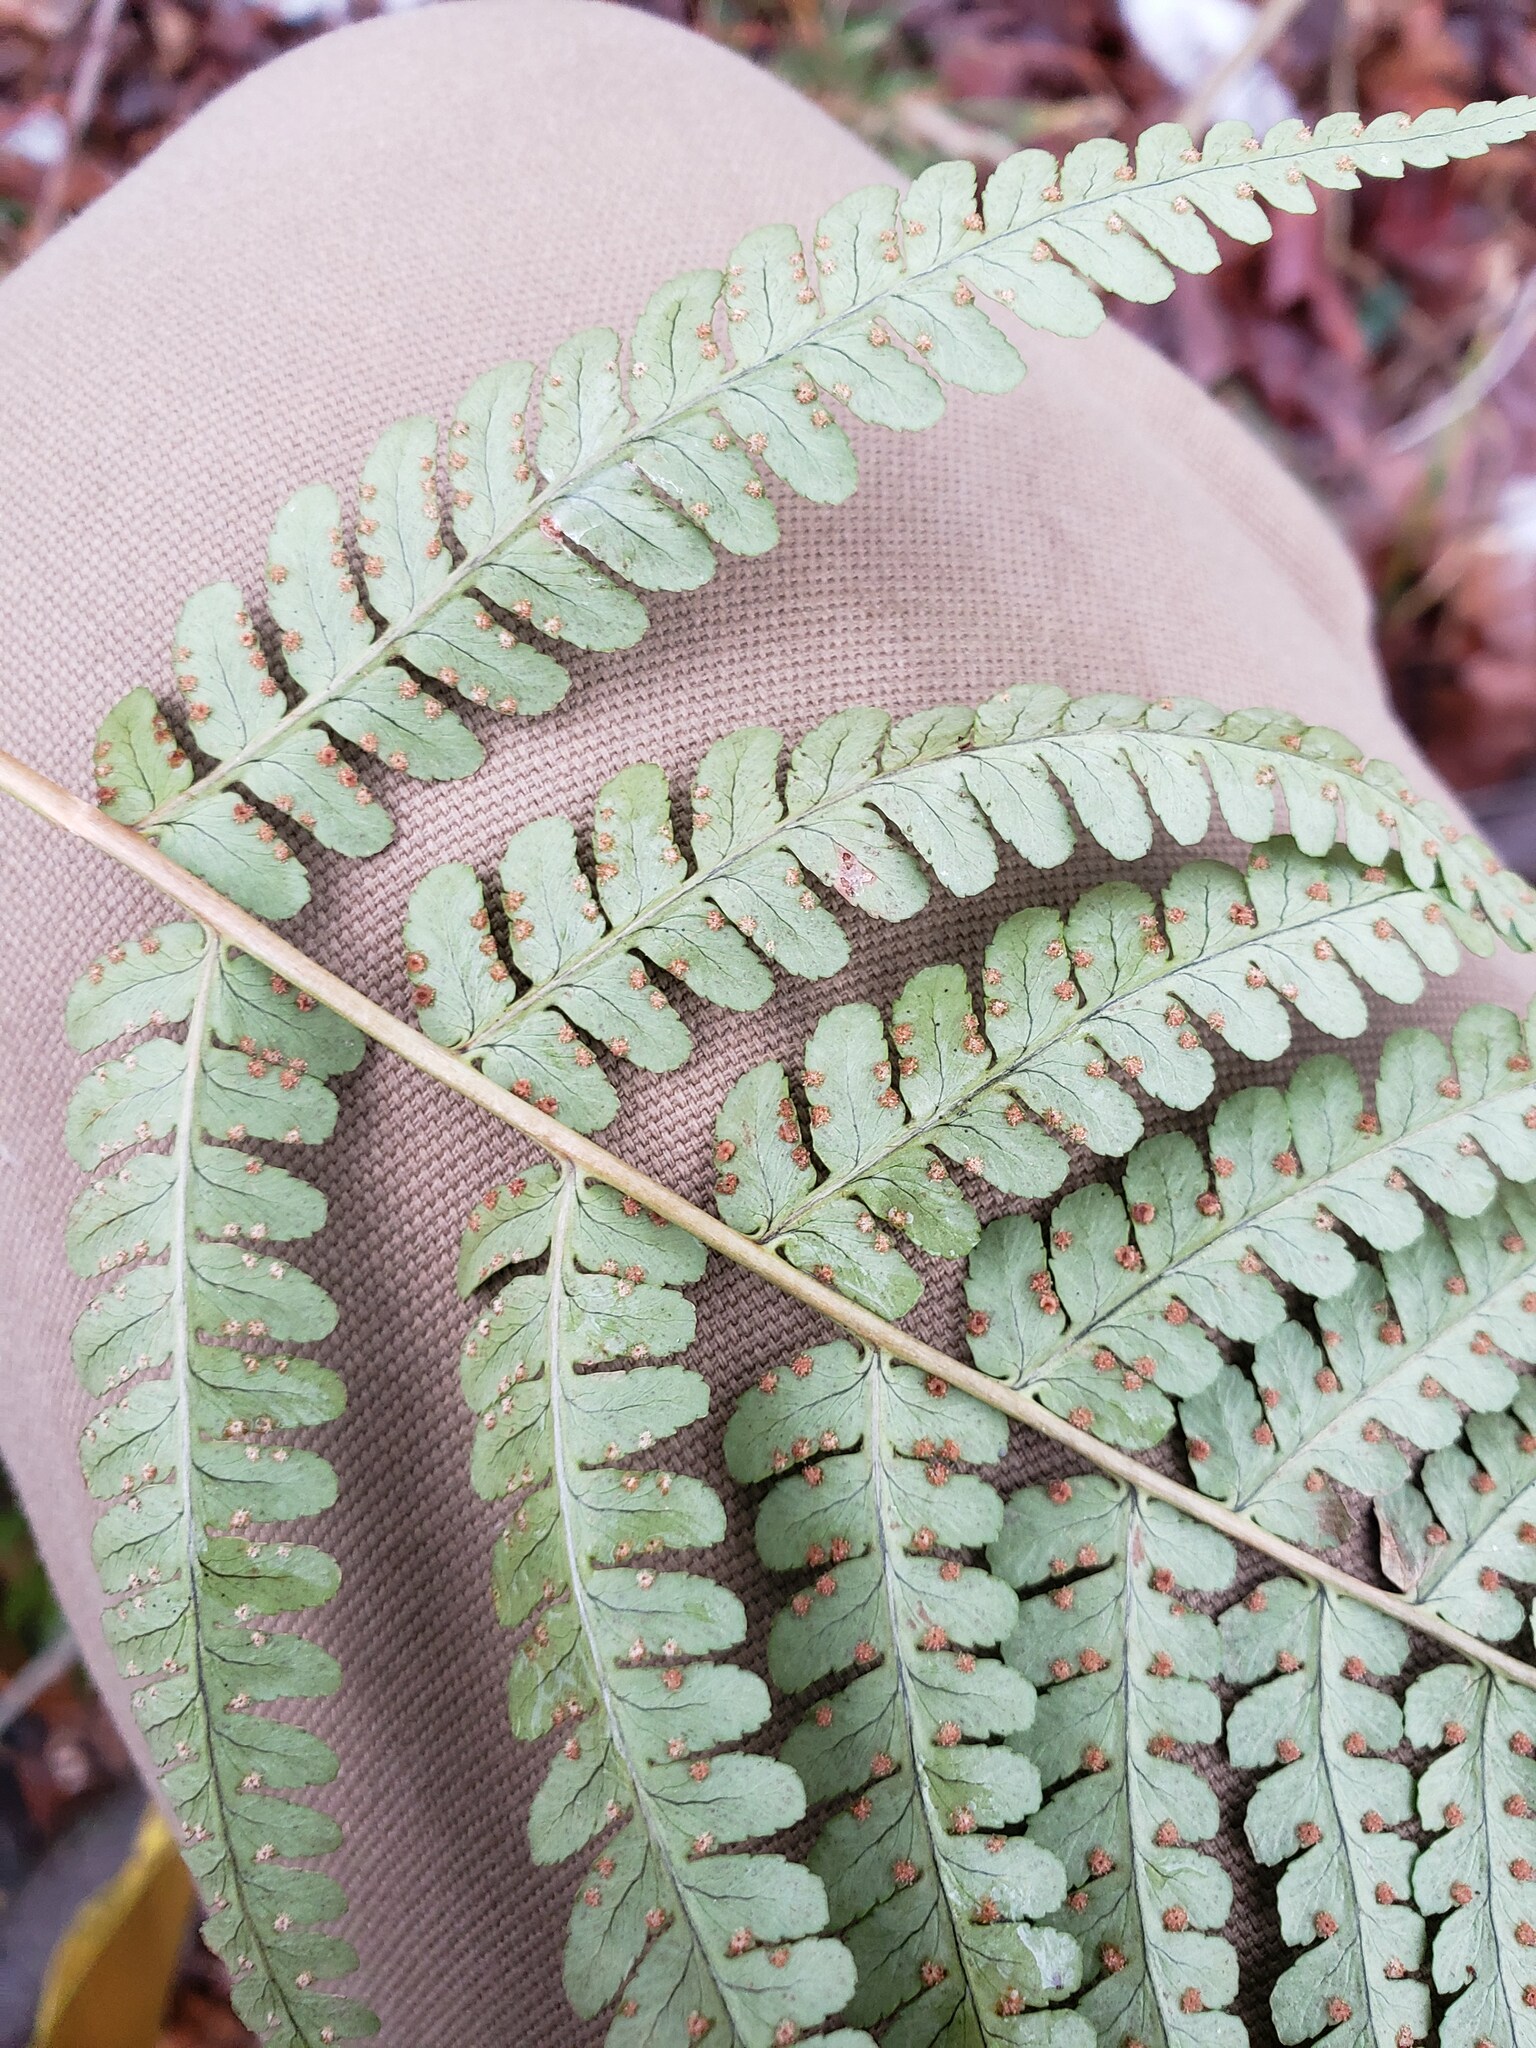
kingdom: Plantae
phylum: Tracheophyta
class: Polypodiopsida
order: Polypodiales
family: Dryopteridaceae
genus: Dryopteris
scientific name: Dryopteris marginalis
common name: Marginal wood fern
